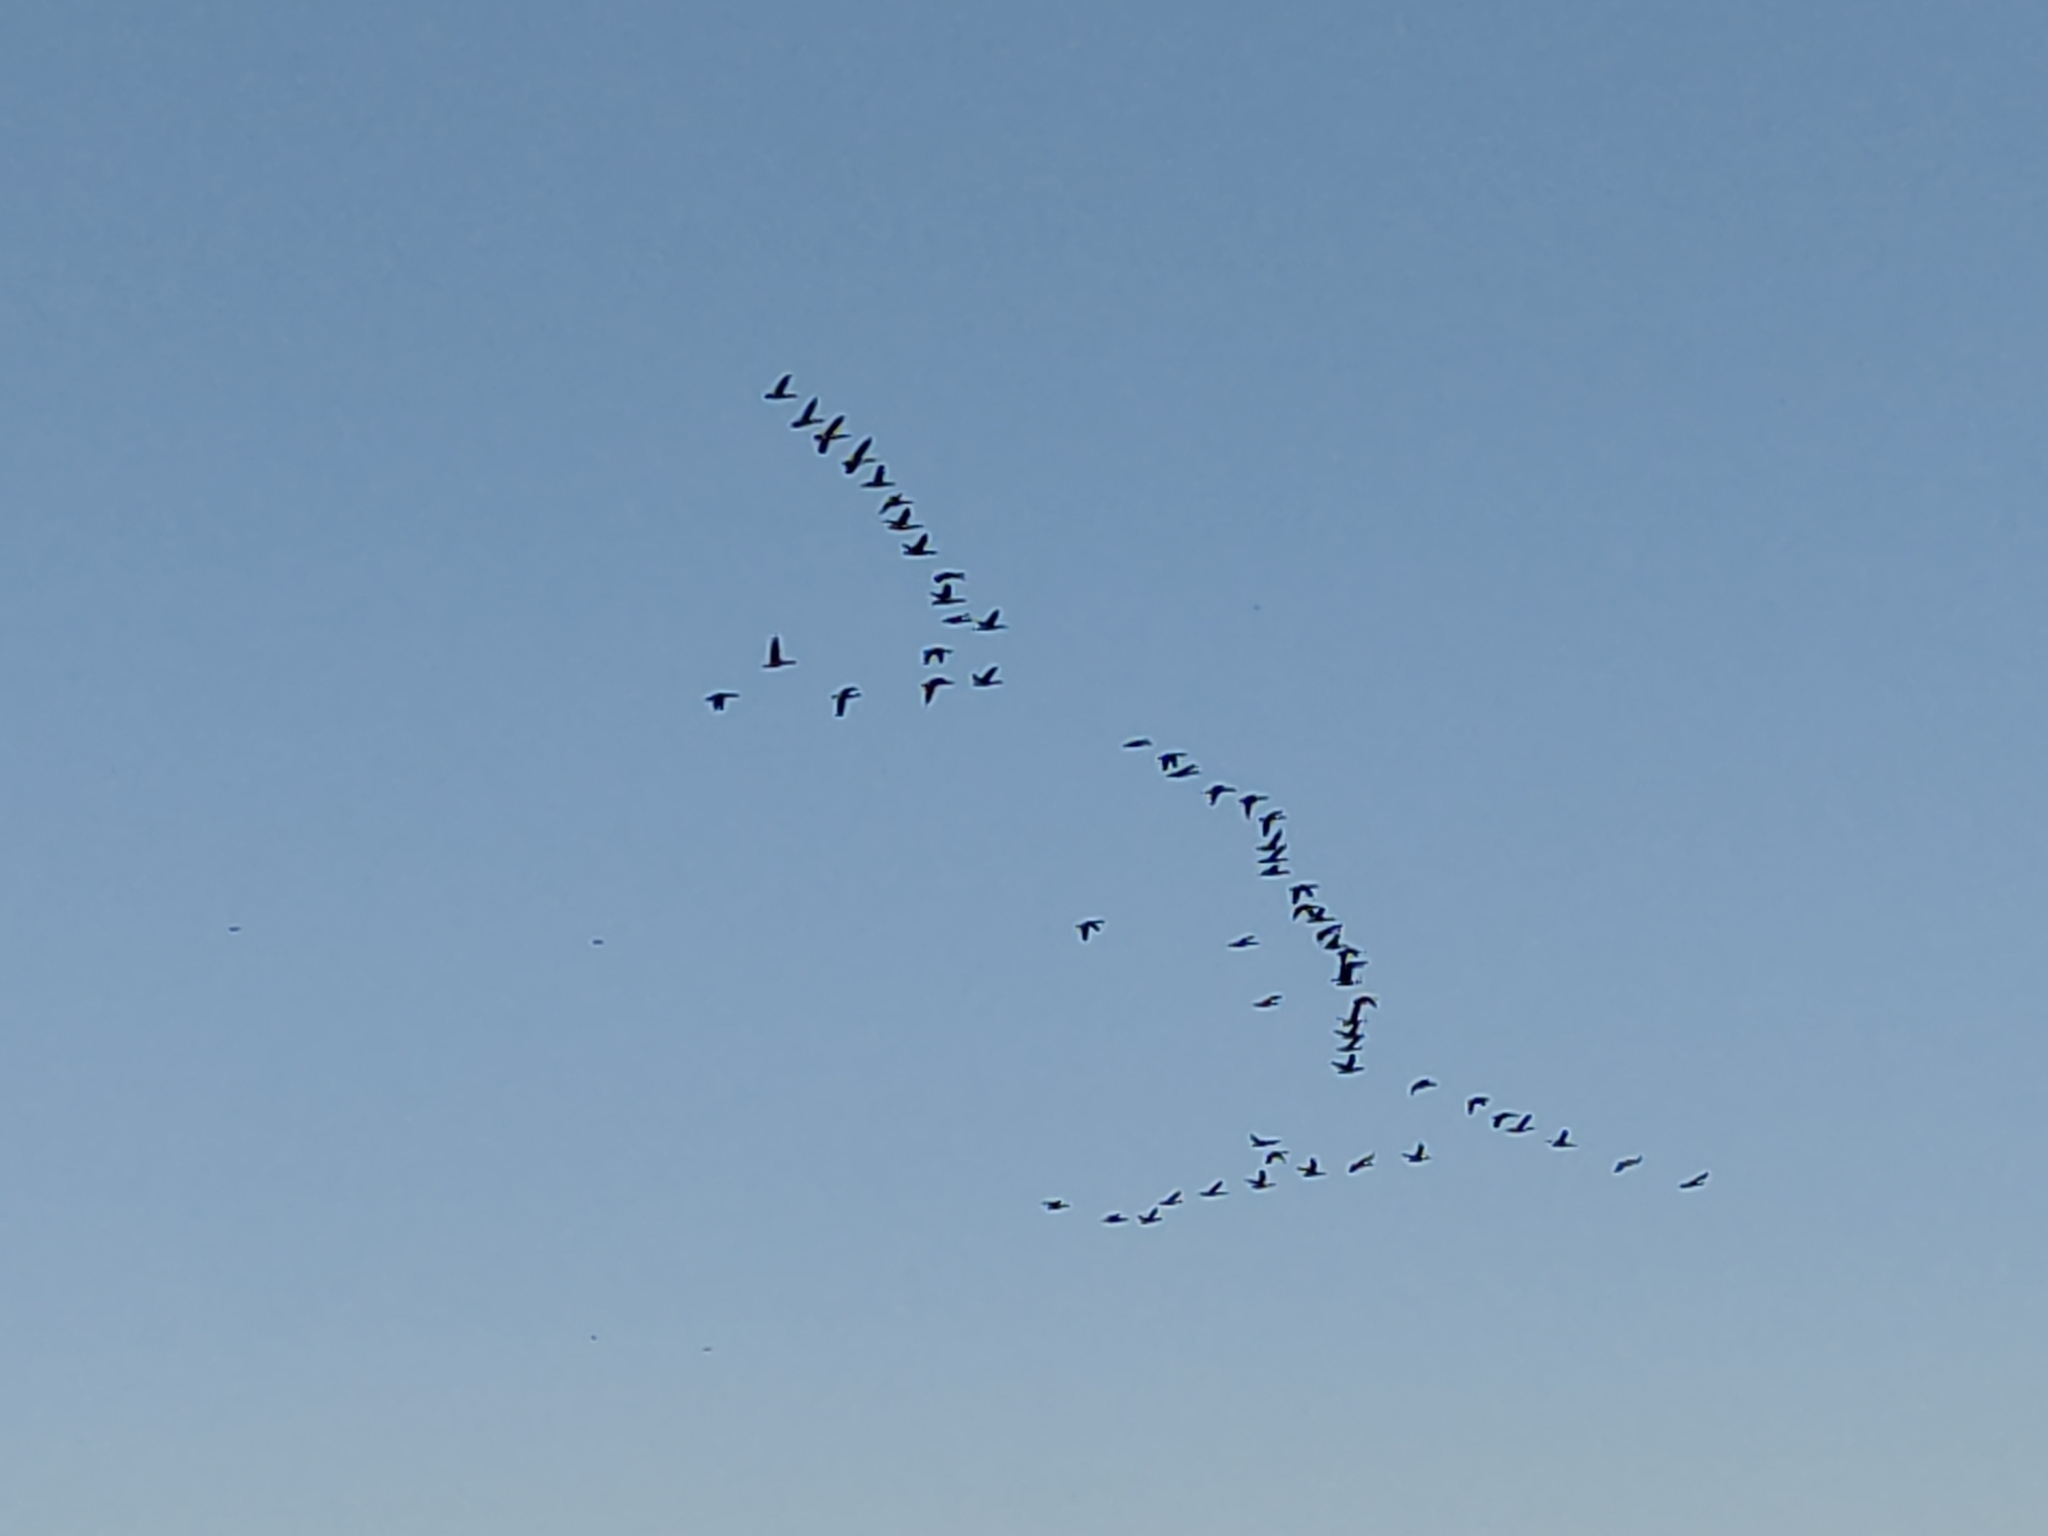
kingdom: Animalia
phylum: Chordata
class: Aves
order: Anseriformes
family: Anatidae
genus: Branta
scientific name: Branta canadensis
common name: Canada goose
